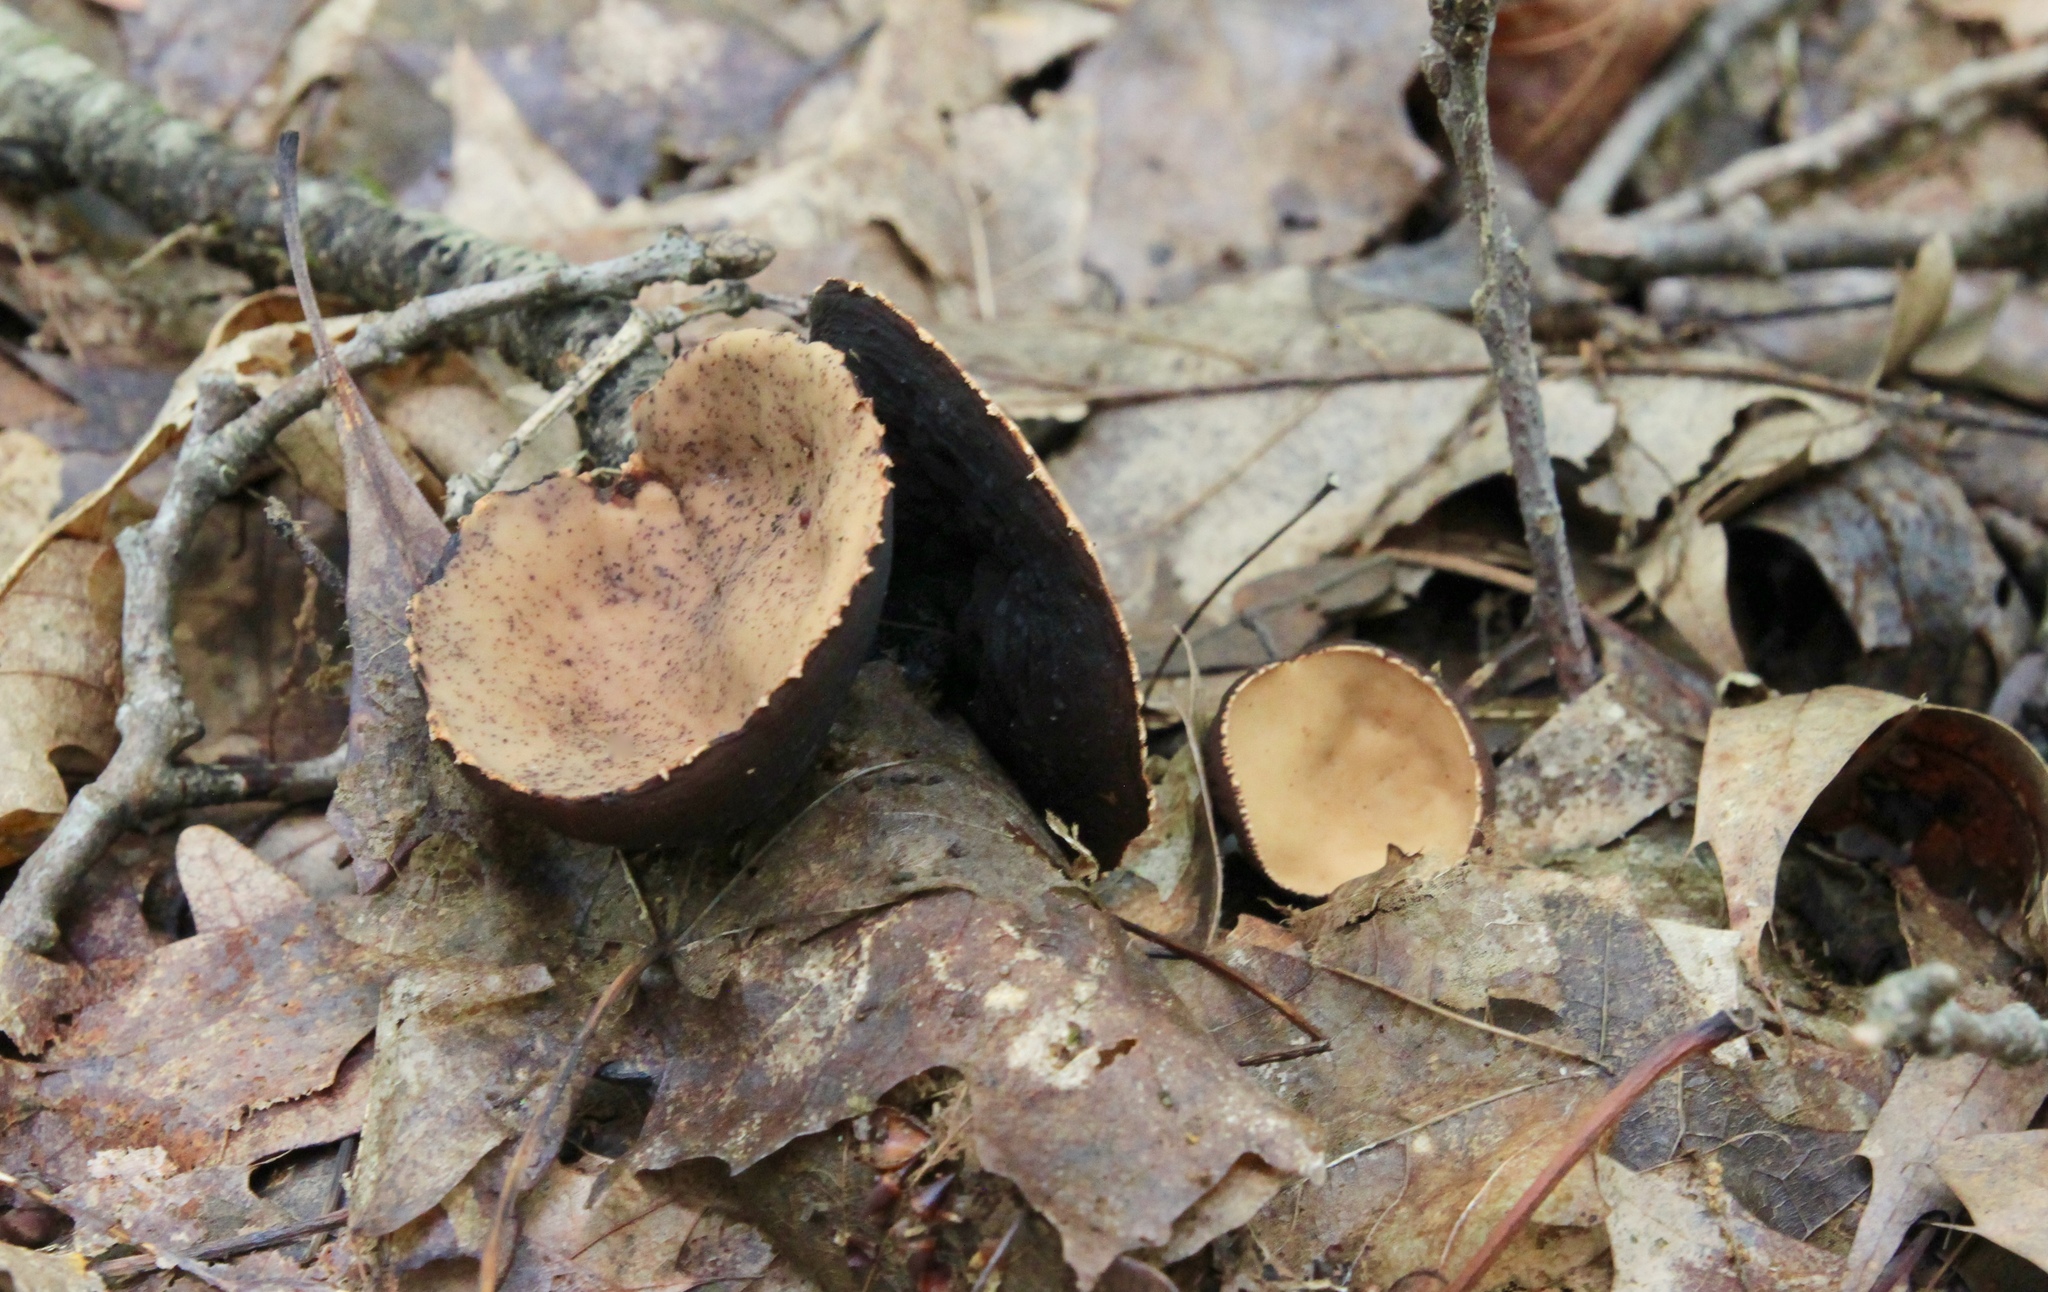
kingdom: Fungi
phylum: Ascomycota
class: Pezizomycetes
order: Pezizales
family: Sarcosomataceae
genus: Galiella
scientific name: Galiella rufa
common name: Hairy rubber cup
